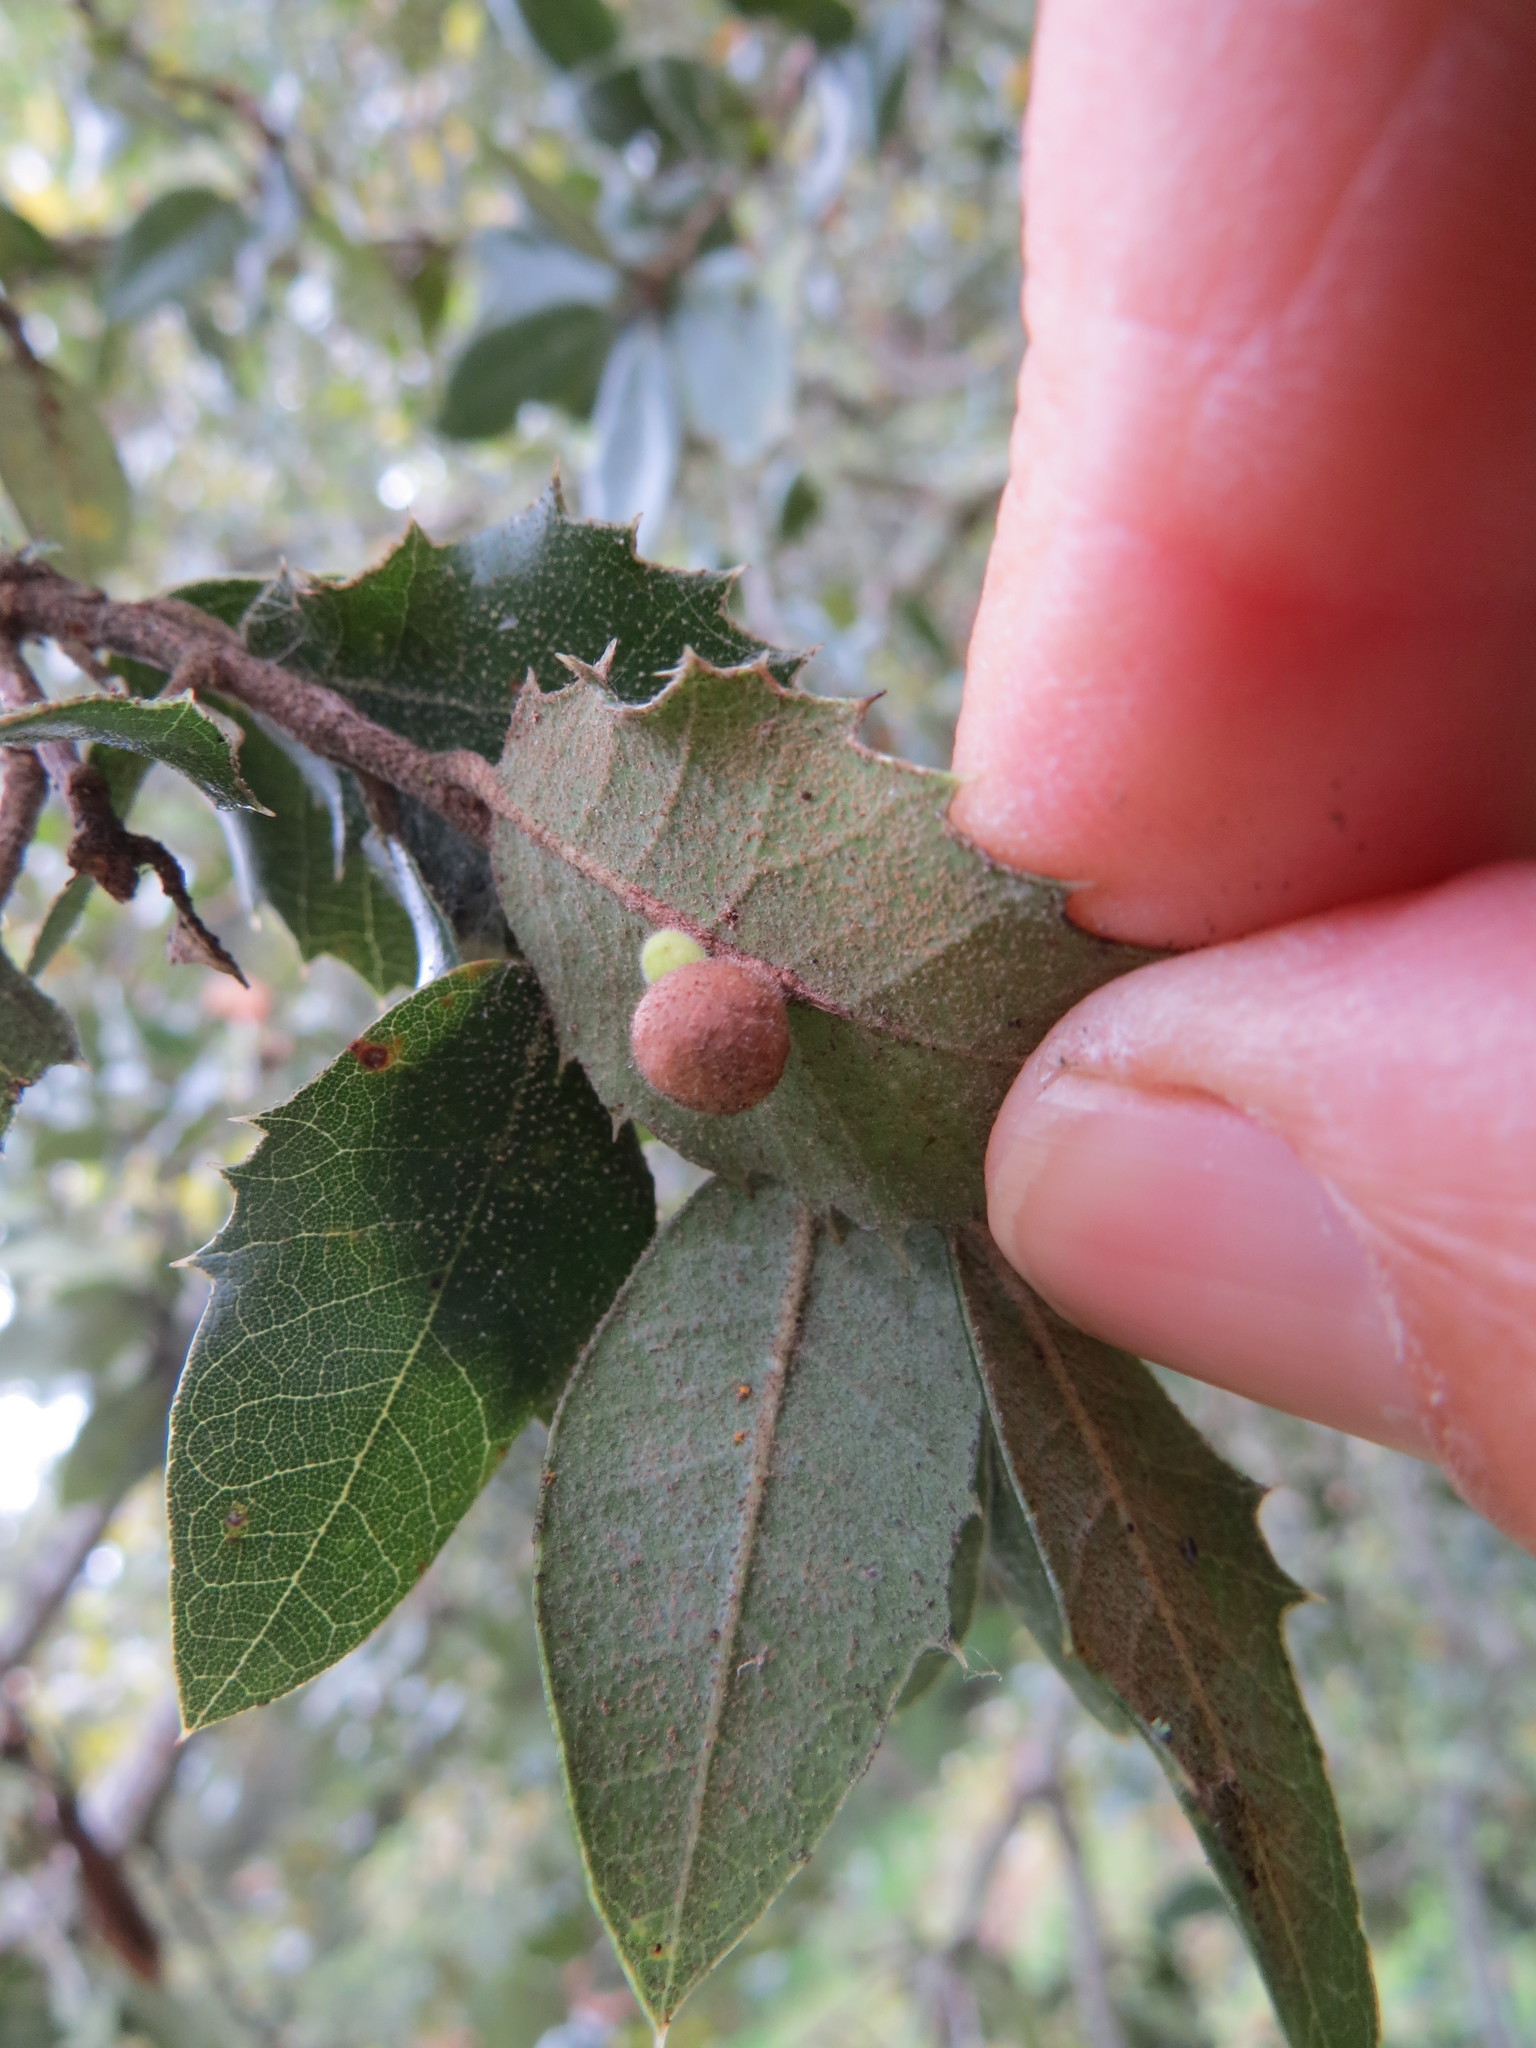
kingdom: Animalia
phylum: Arthropoda
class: Insecta
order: Hymenoptera
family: Cynipidae
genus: Andricus
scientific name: Andricus
